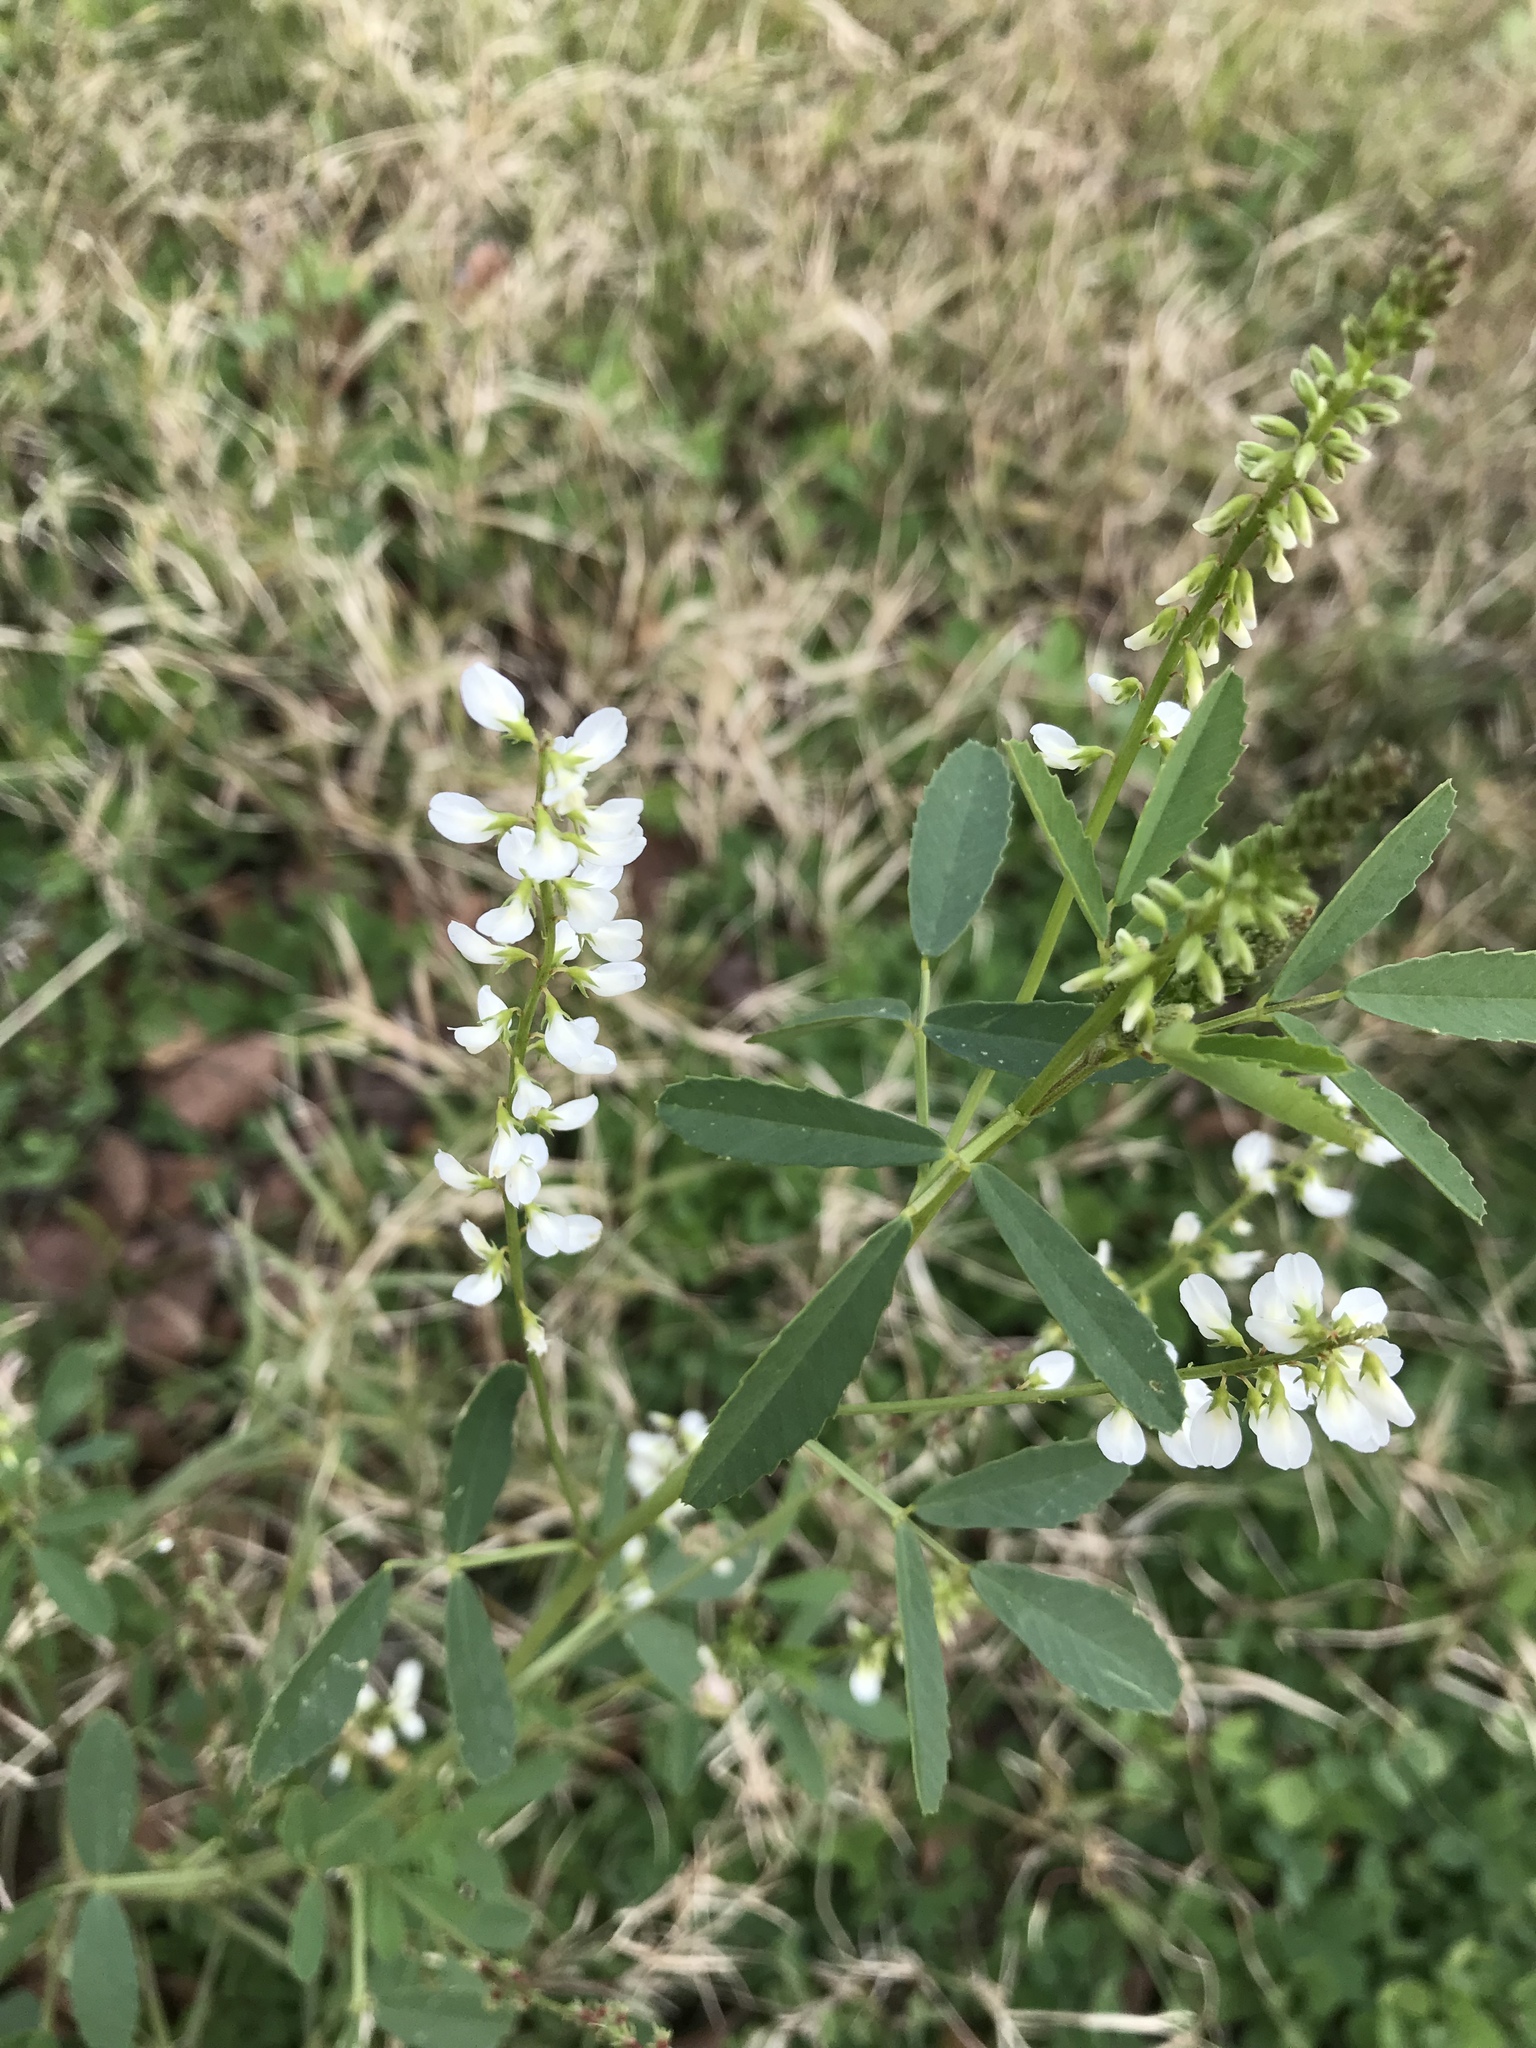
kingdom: Plantae
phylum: Tracheophyta
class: Magnoliopsida
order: Fabales
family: Fabaceae
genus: Melilotus
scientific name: Melilotus albus
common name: White melilot
